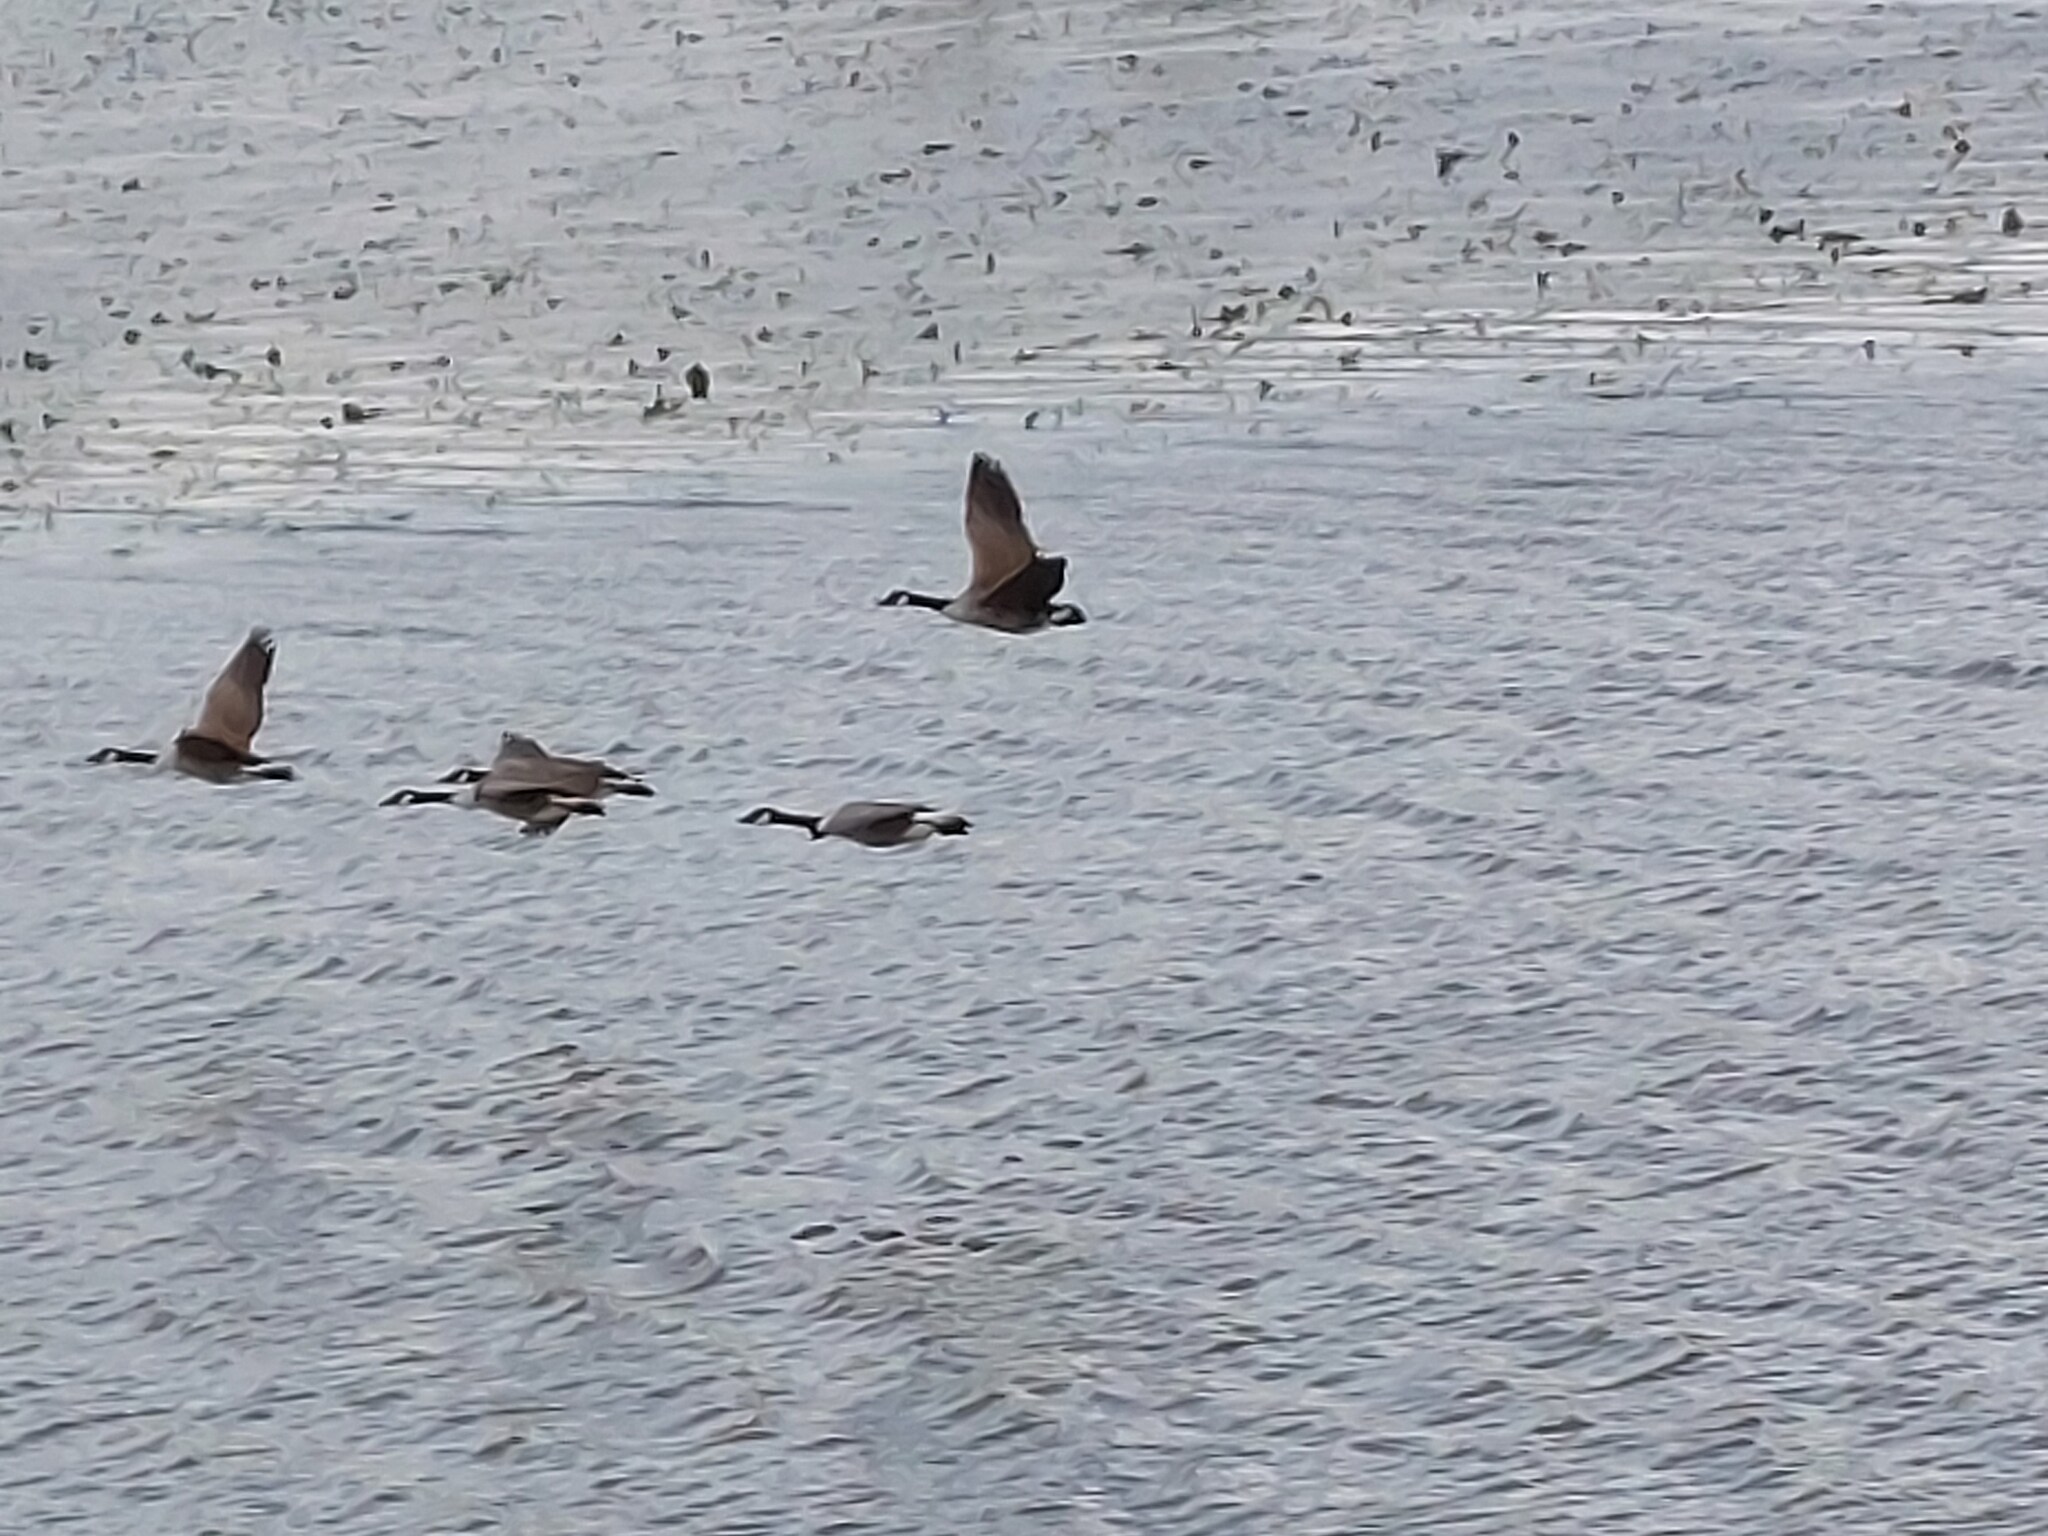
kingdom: Animalia
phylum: Chordata
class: Aves
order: Anseriformes
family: Anatidae
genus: Branta
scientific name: Branta canadensis
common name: Canada goose
